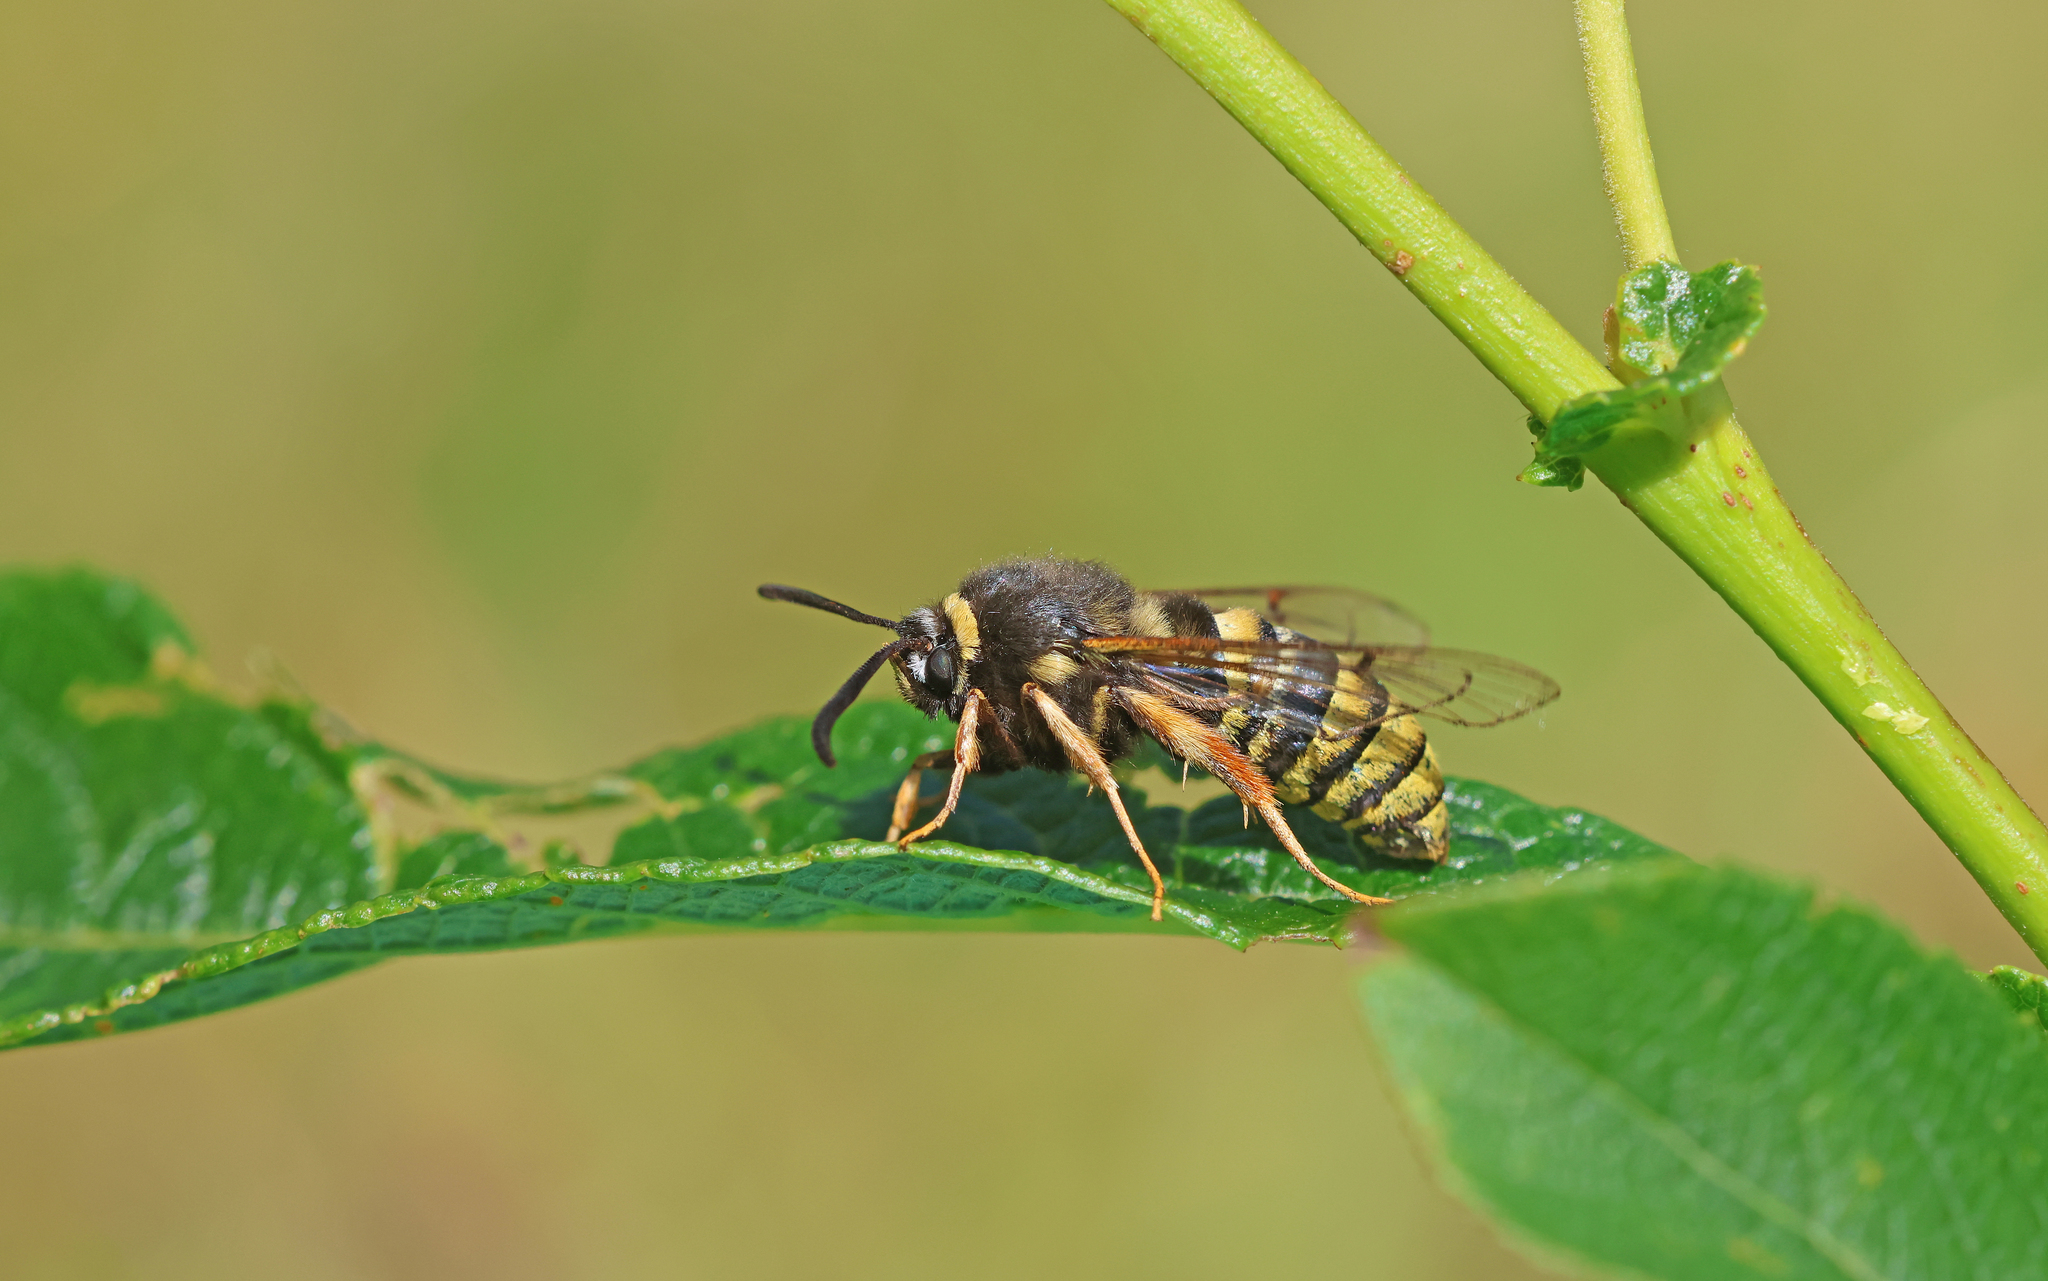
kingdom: Animalia
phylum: Arthropoda
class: Insecta
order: Lepidoptera
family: Sesiidae
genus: Sesia
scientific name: Sesia bembeciformis
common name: Lunar hornet moth
